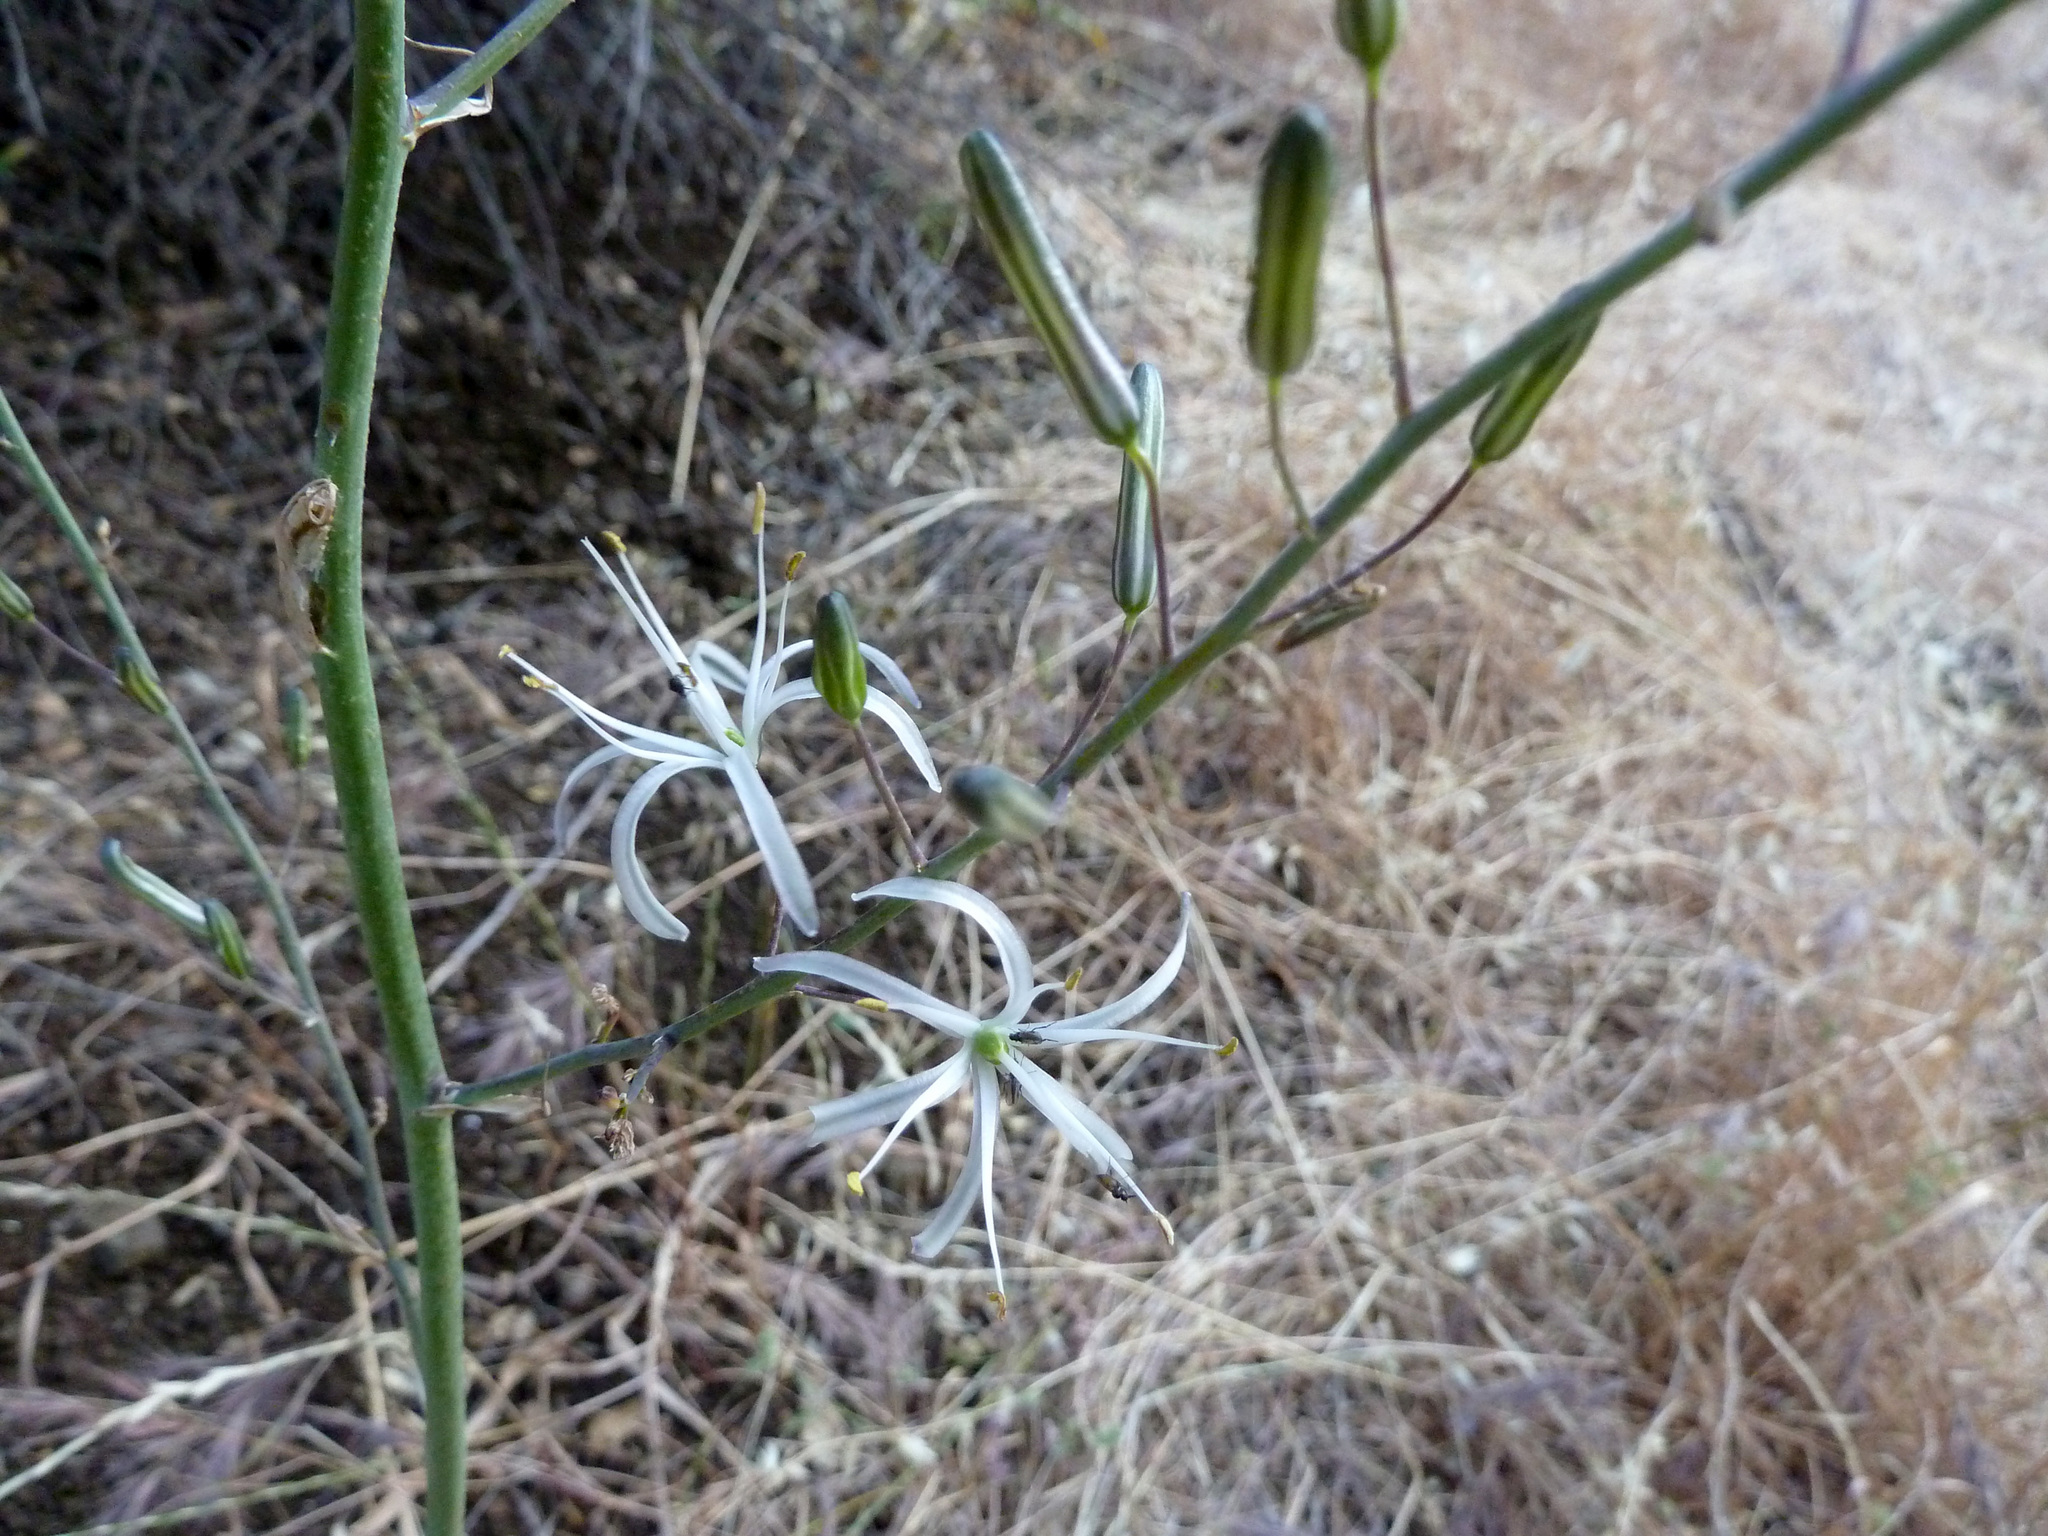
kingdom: Plantae
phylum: Tracheophyta
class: Liliopsida
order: Asparagales
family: Asparagaceae
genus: Chlorogalum
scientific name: Chlorogalum pomeridianum
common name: Amole
